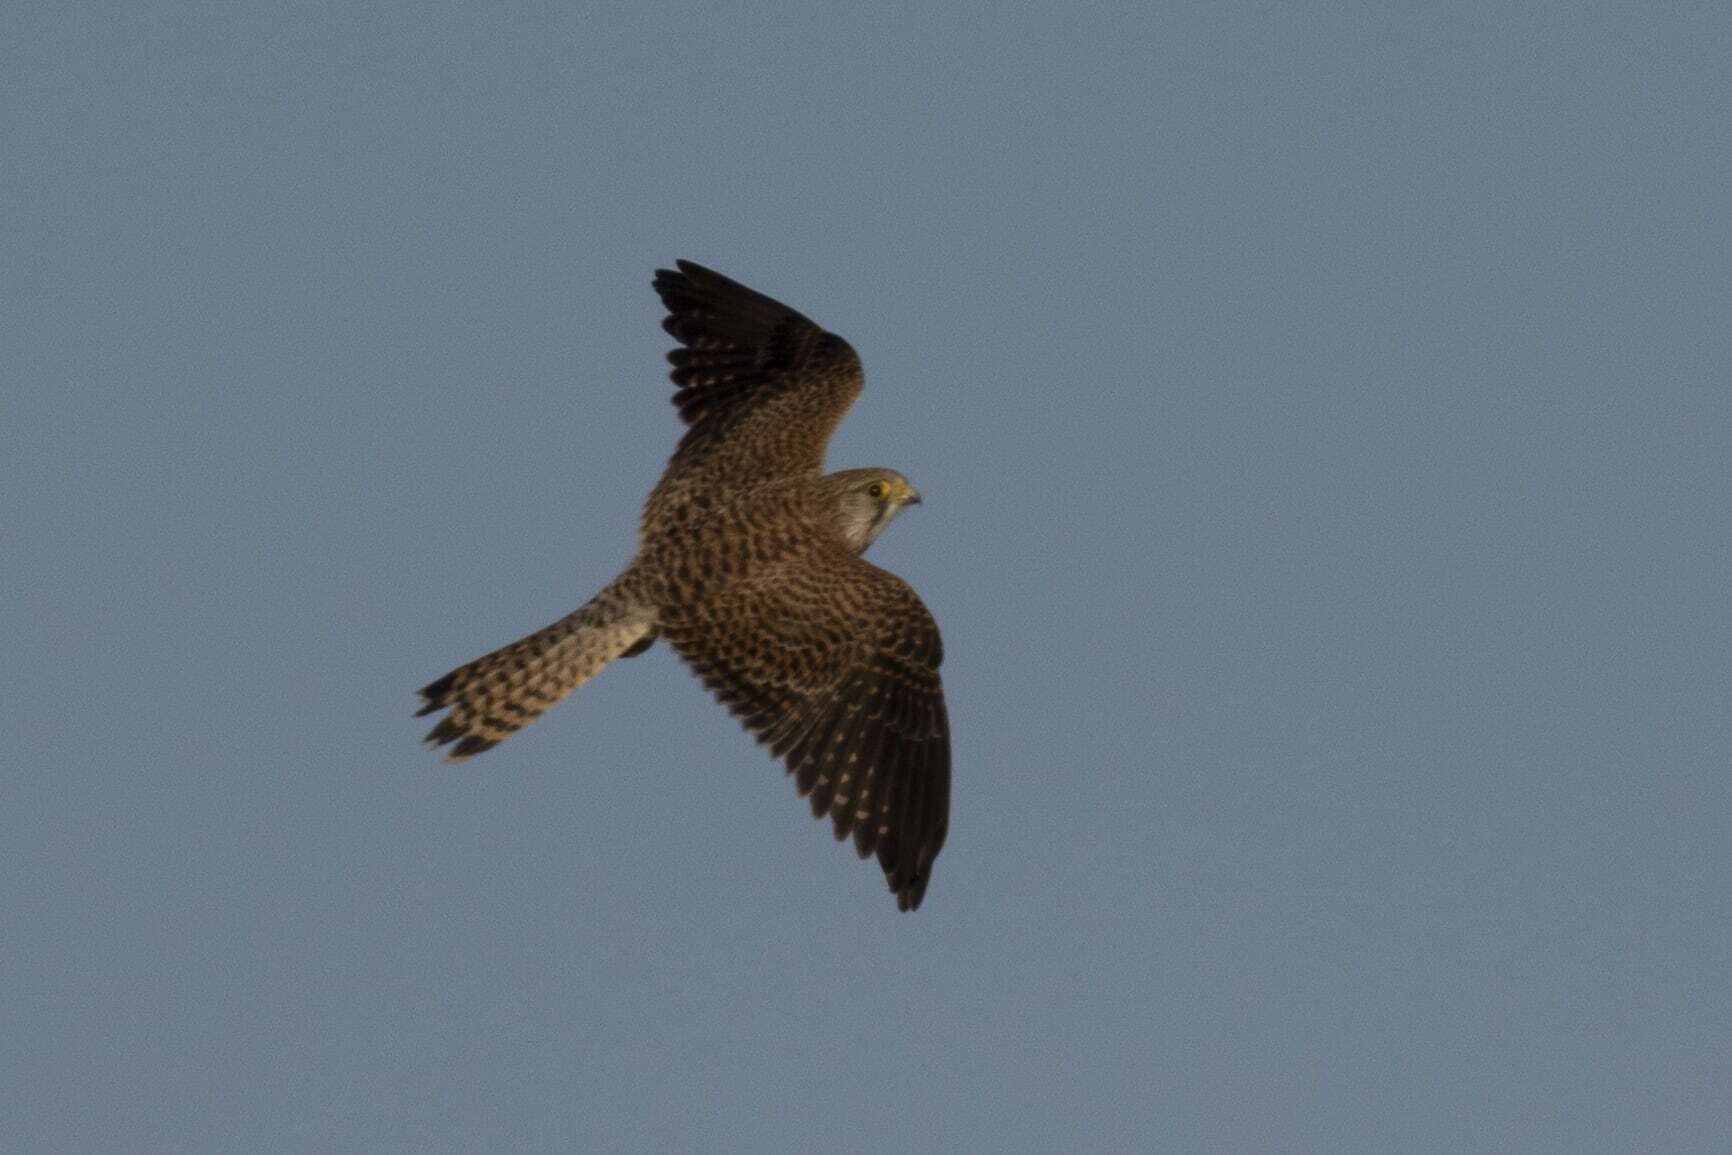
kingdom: Animalia
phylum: Chordata
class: Aves
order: Falconiformes
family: Falconidae
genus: Falco
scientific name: Falco tinnunculus
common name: Common kestrel
